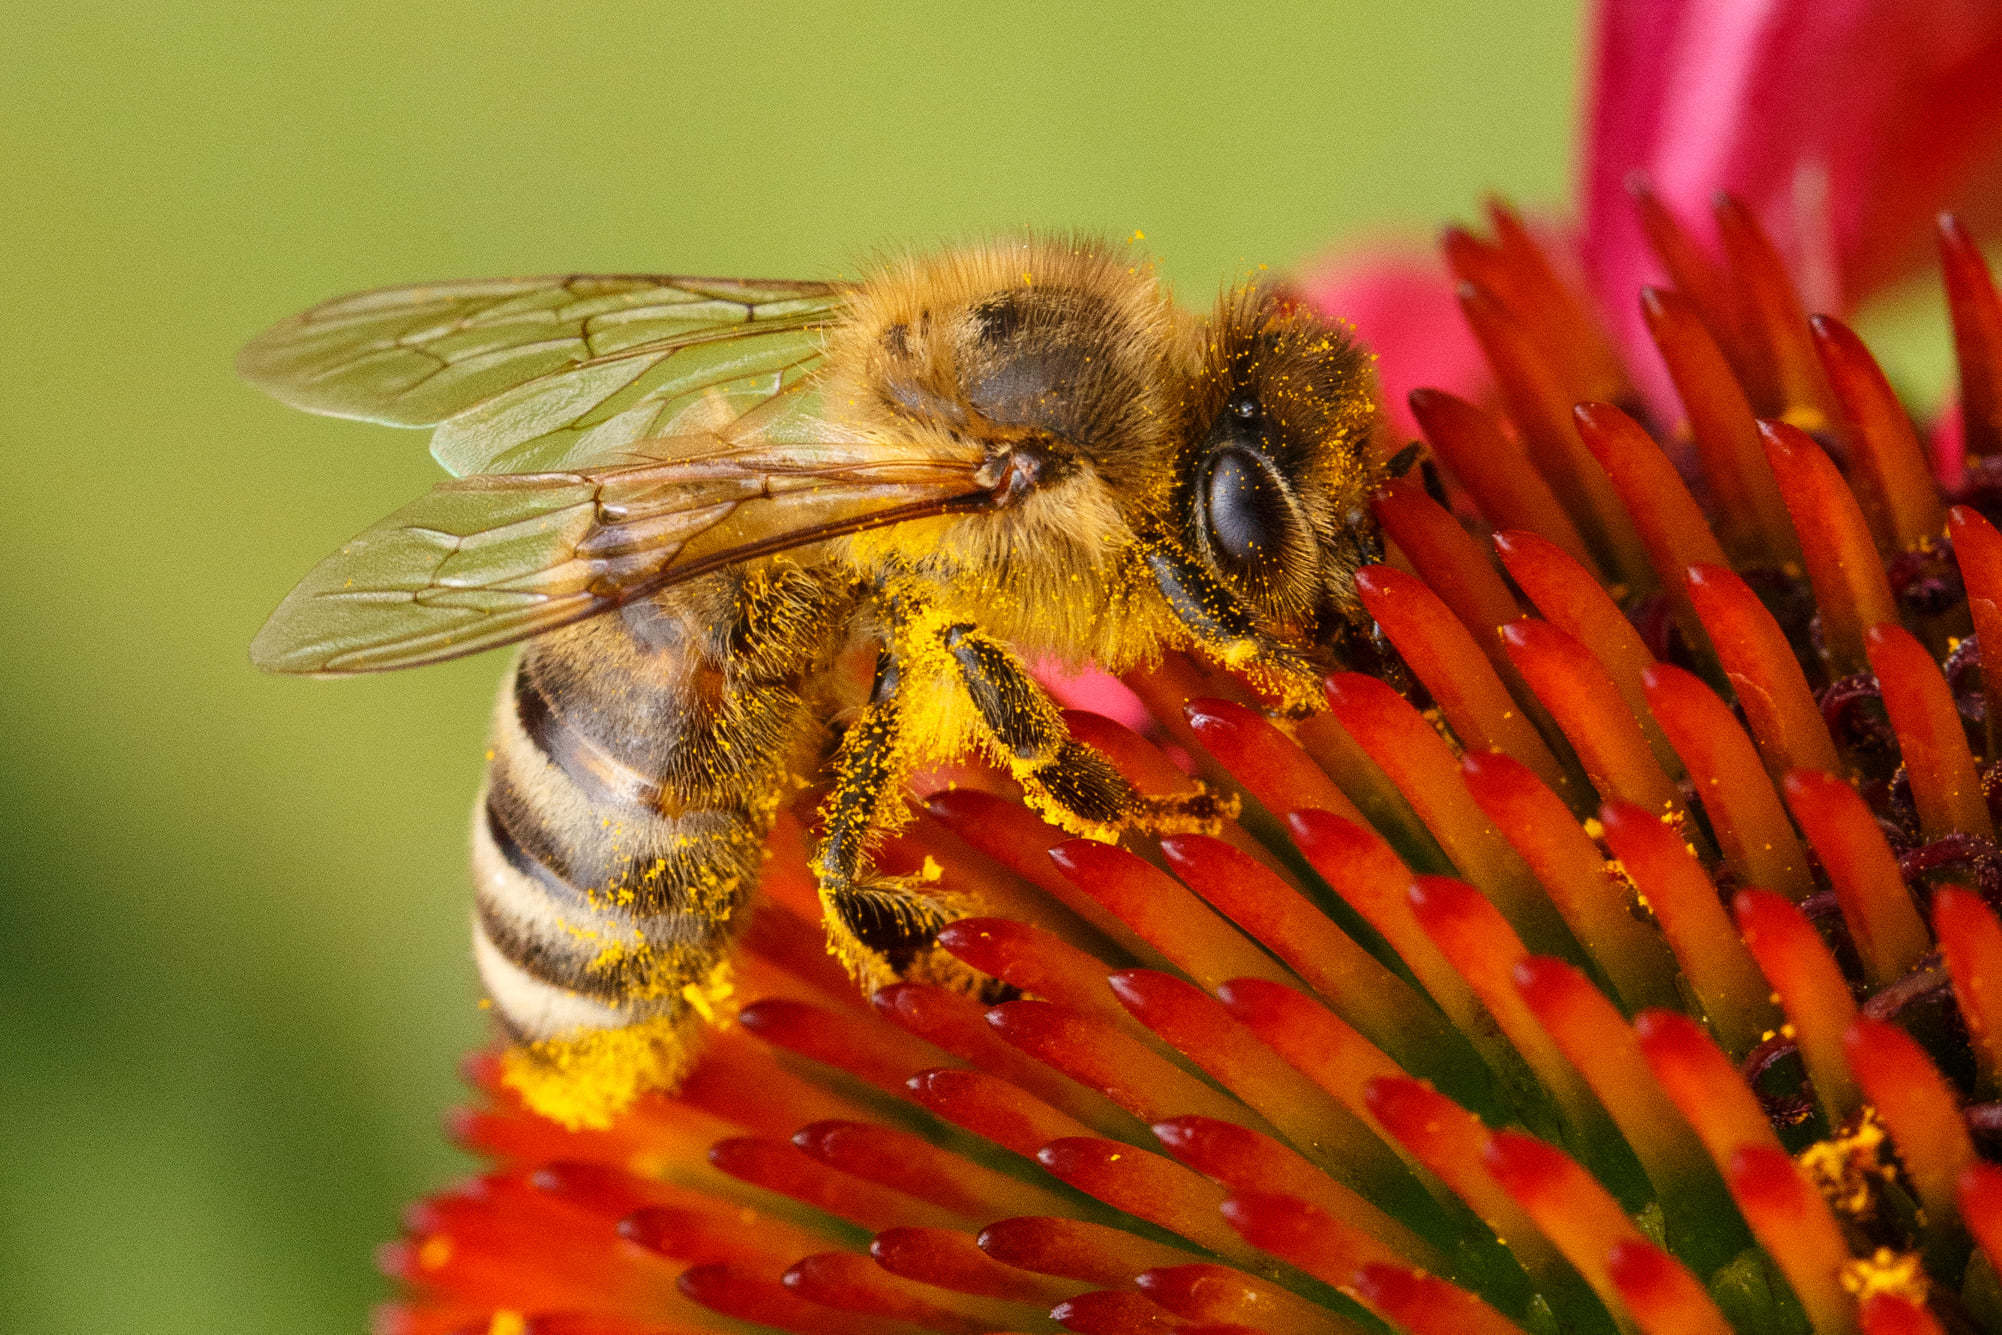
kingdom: Animalia
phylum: Arthropoda
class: Insecta
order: Hymenoptera
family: Apidae
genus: Apis
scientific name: Apis mellifera
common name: Honey bee
